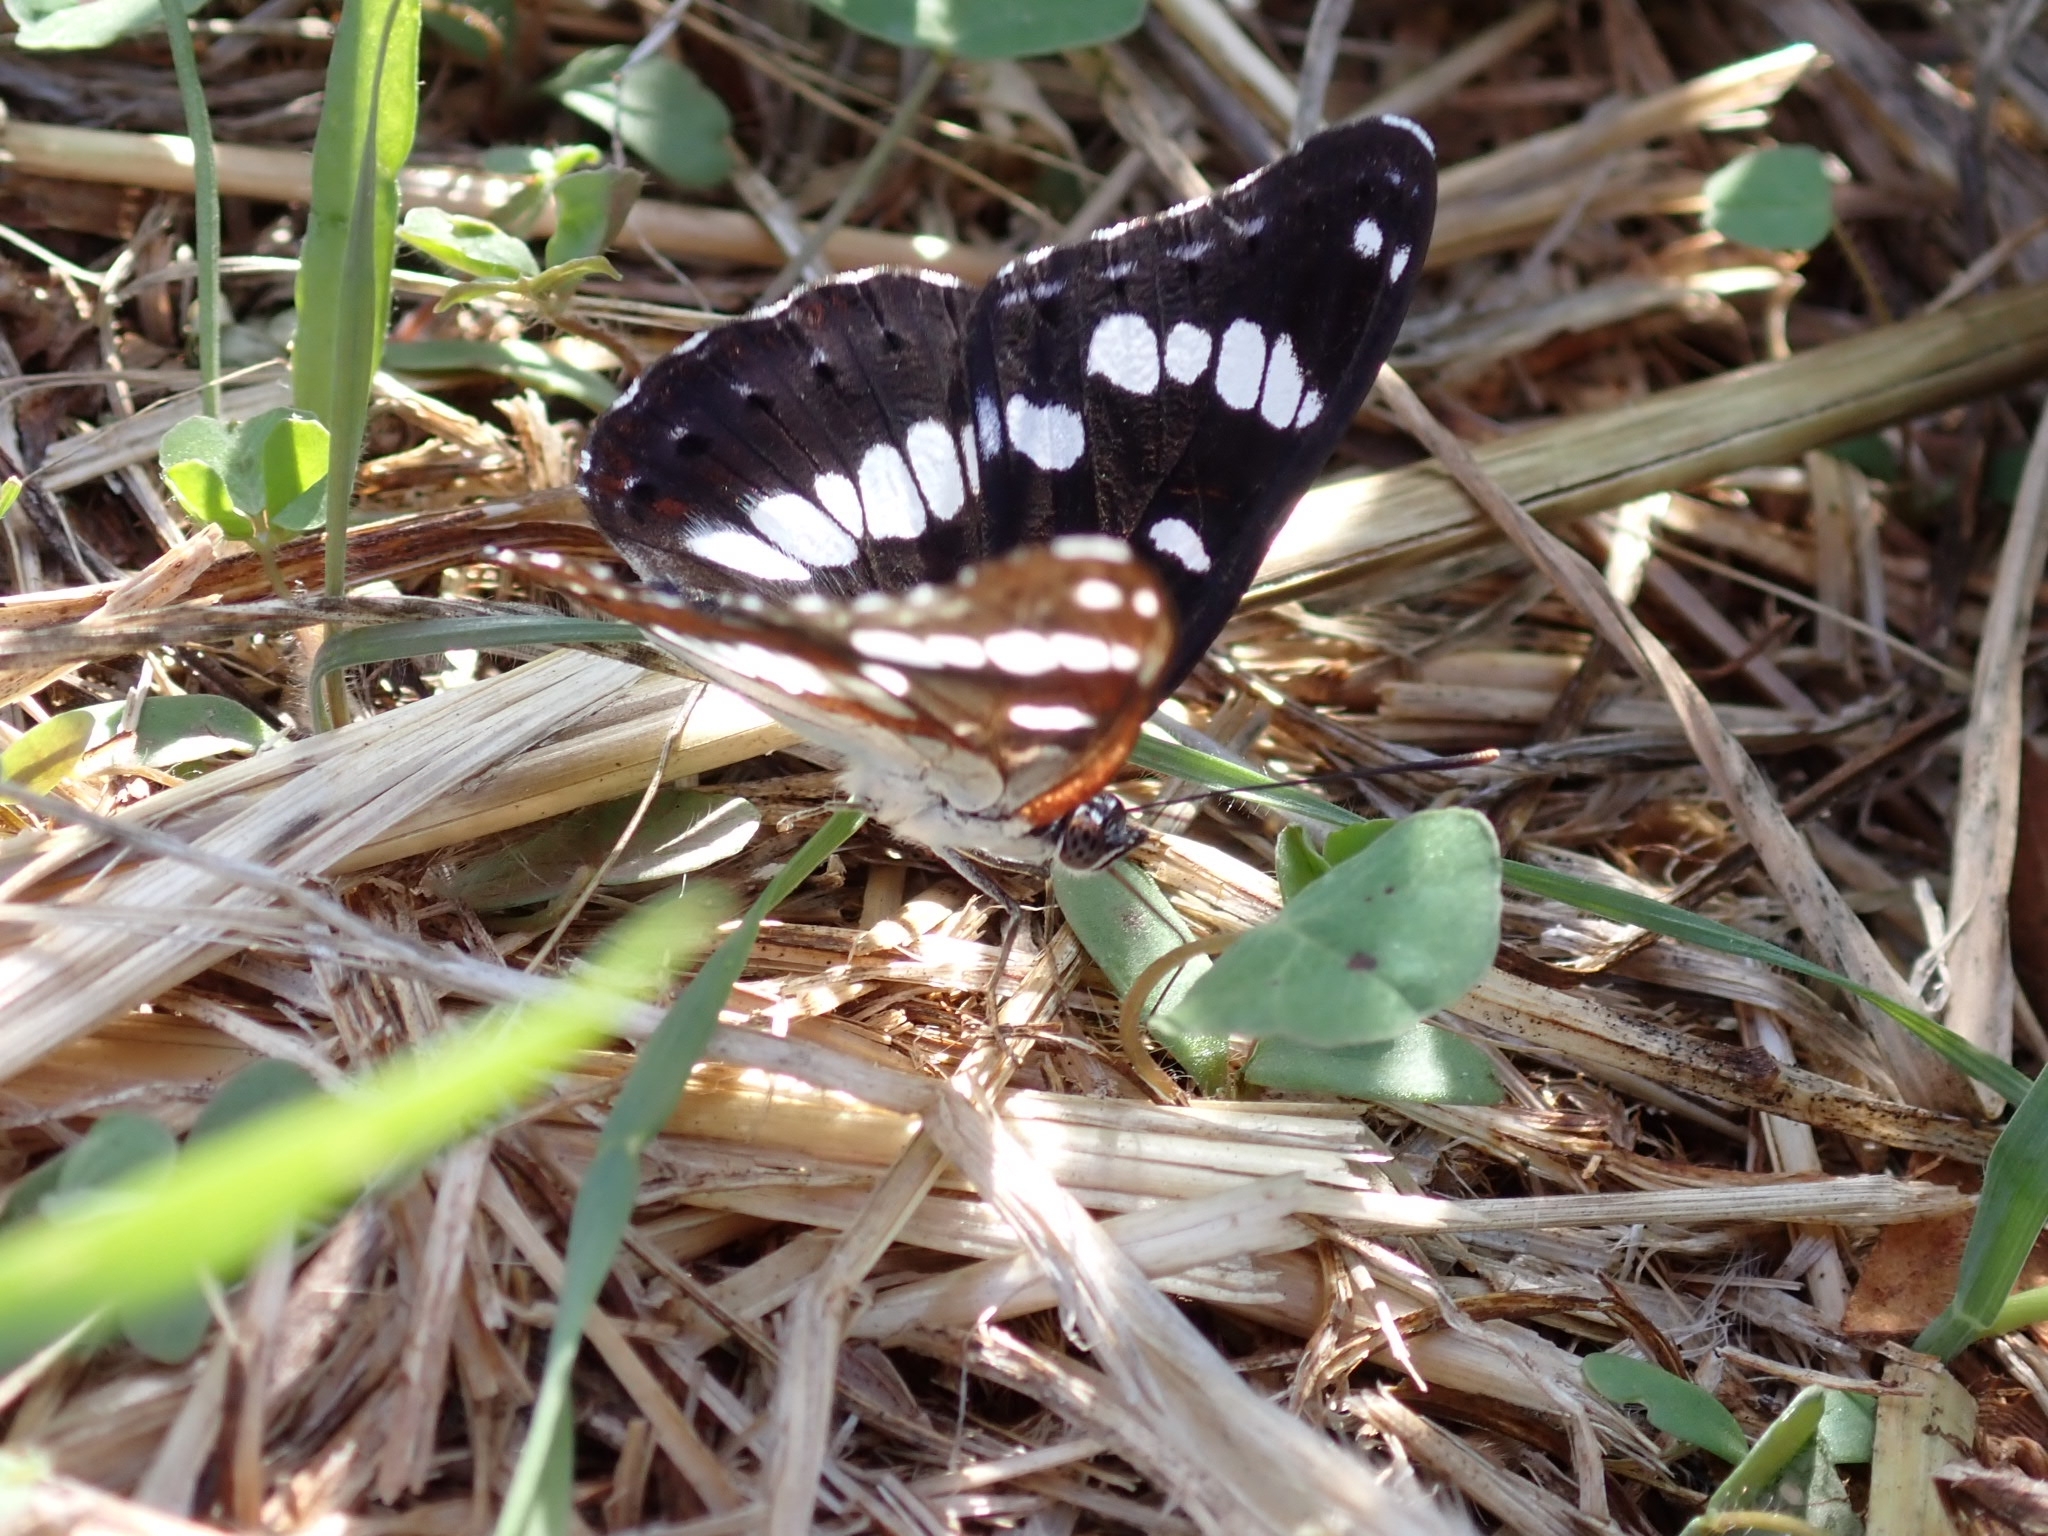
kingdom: Animalia
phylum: Arthropoda
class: Insecta
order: Lepidoptera
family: Nymphalidae
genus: Limenitis
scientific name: Limenitis reducta
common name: Southern white admiral
